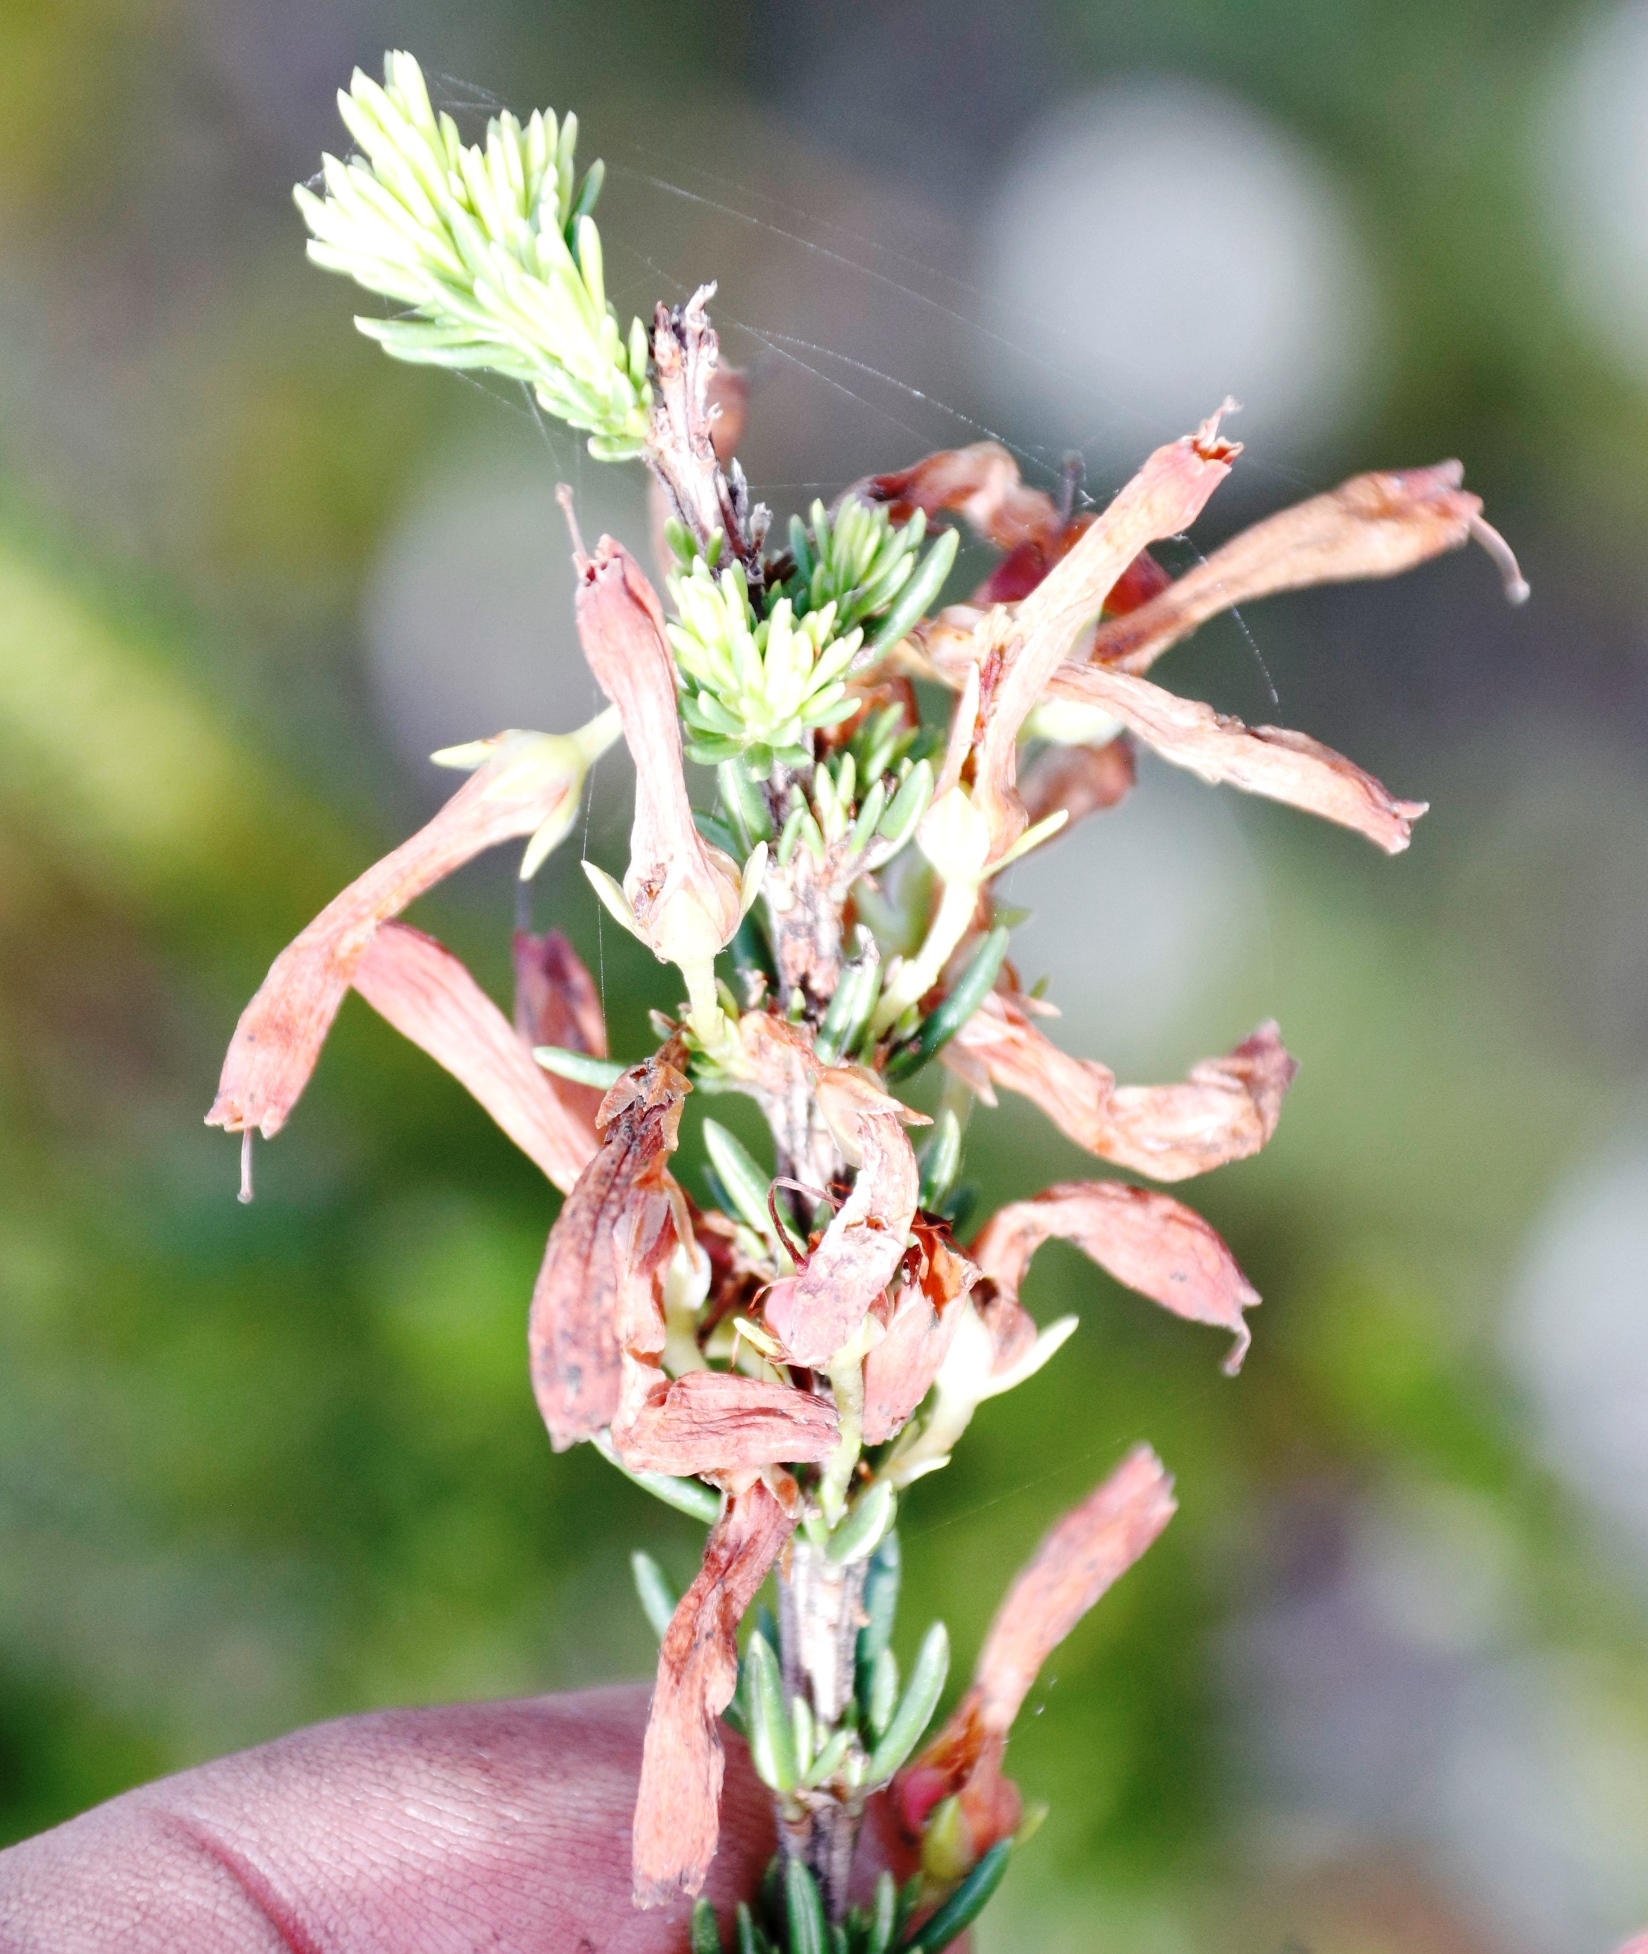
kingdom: Plantae
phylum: Tracheophyta
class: Magnoliopsida
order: Ericales
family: Ericaceae
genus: Erica
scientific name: Erica mammosa
